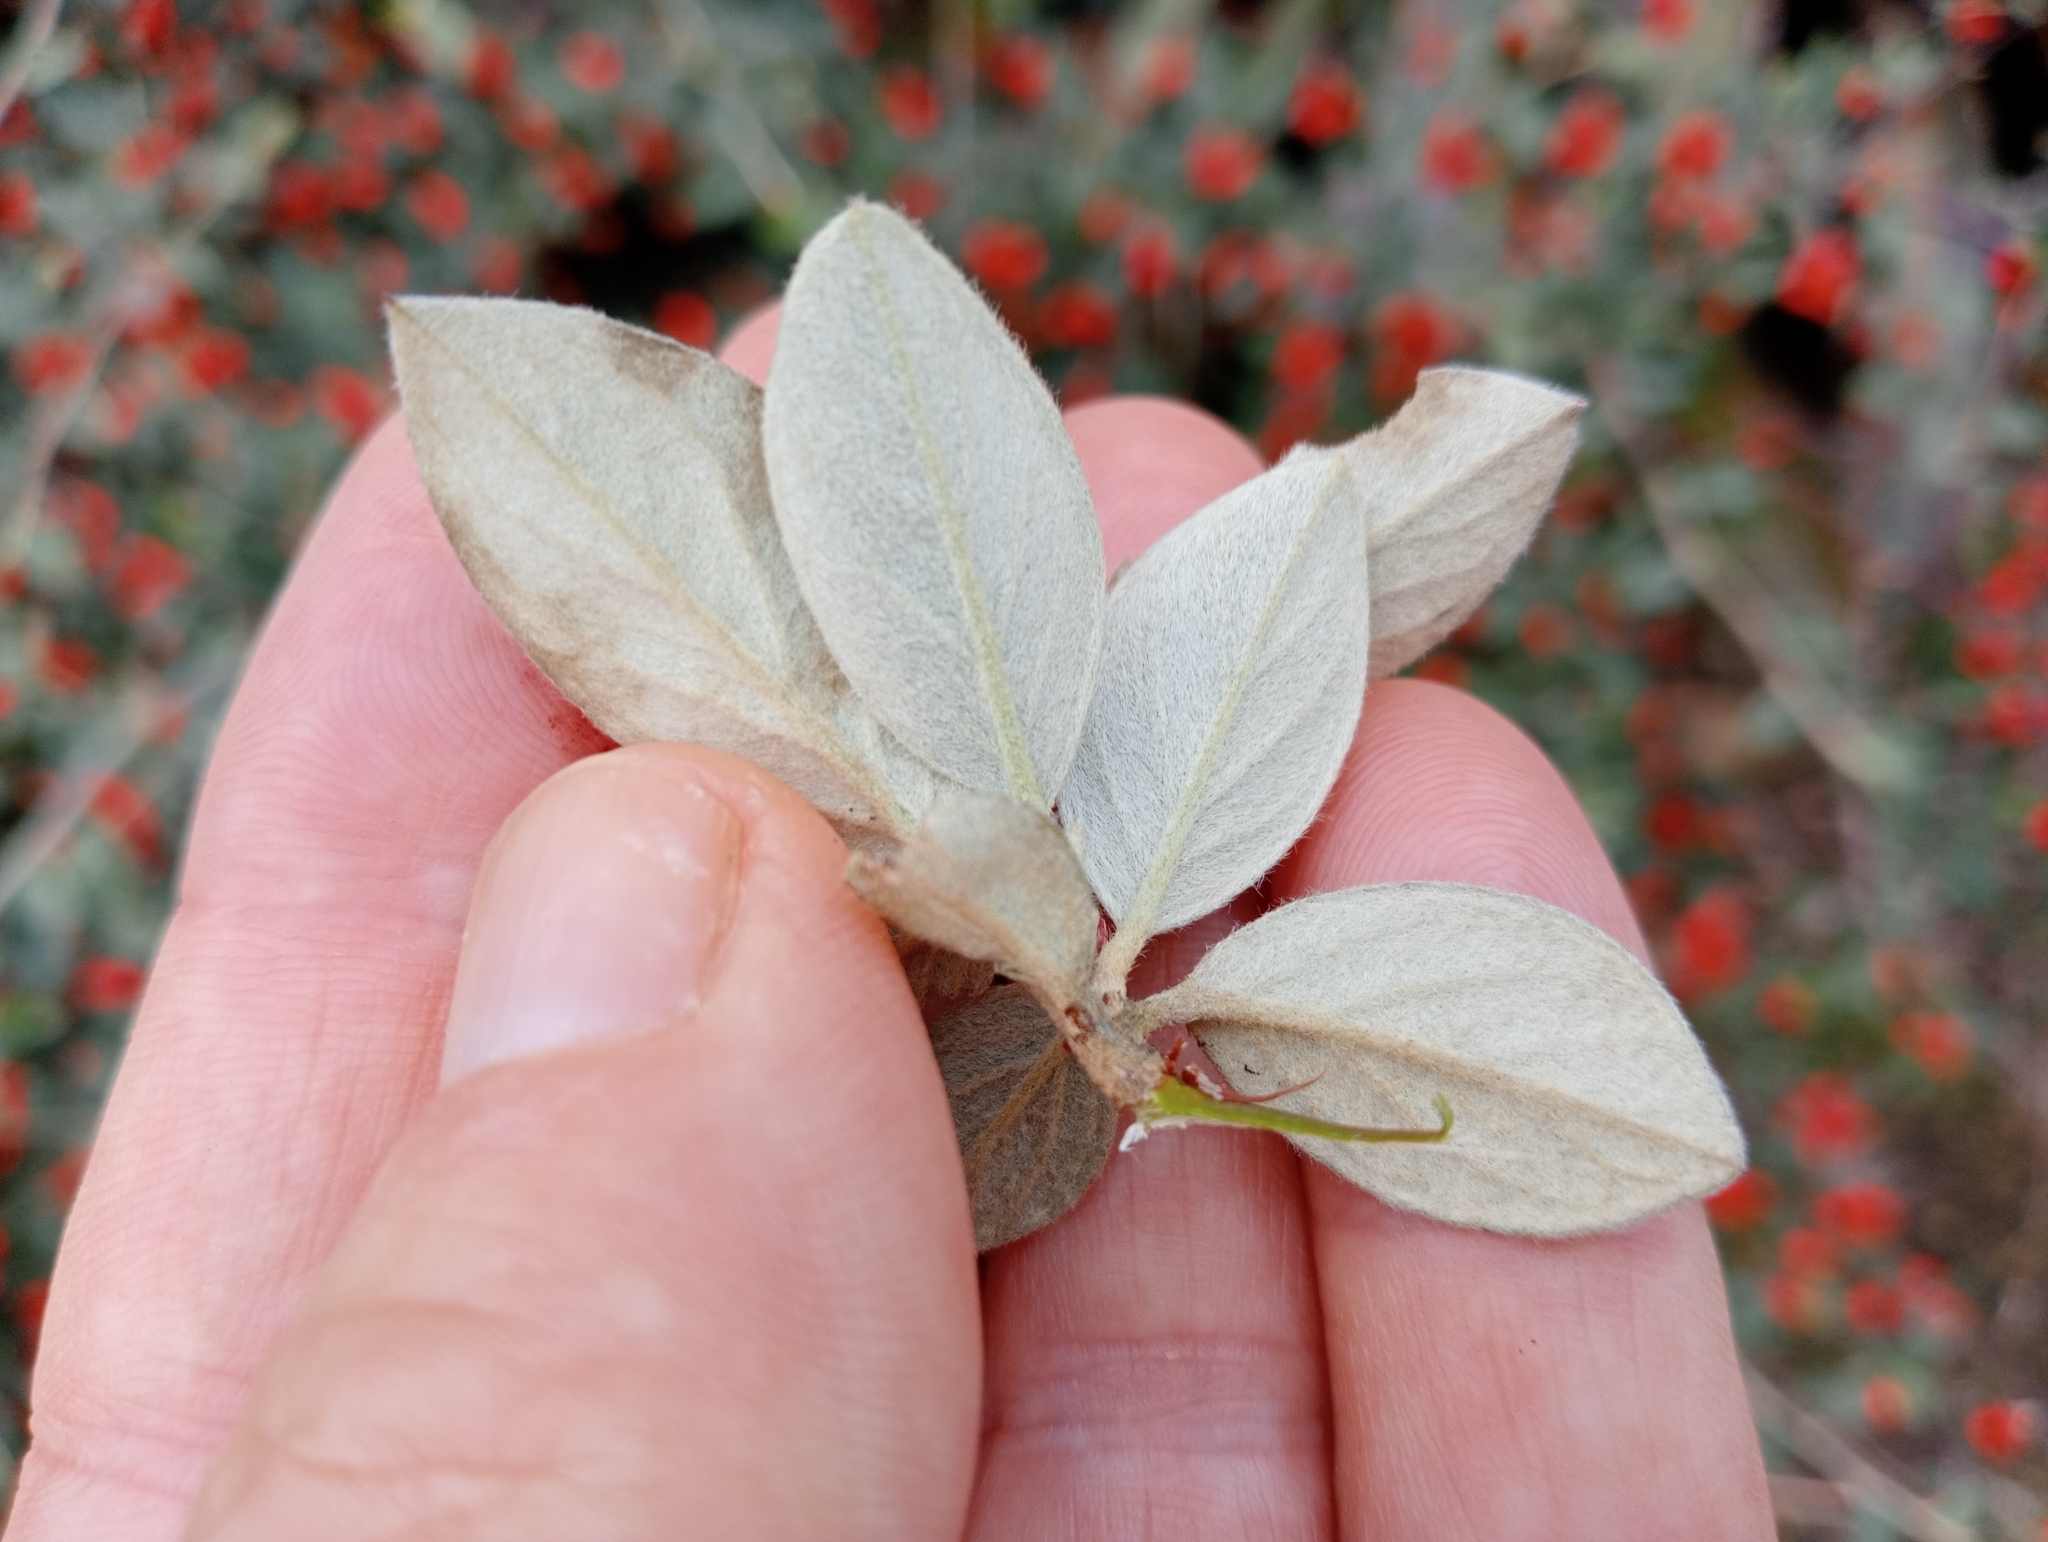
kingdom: Plantae
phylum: Tracheophyta
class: Magnoliopsida
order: Rosales
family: Rosaceae
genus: Cotoneaster
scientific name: Cotoneaster franchetii
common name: Franchet's cotoneaster
